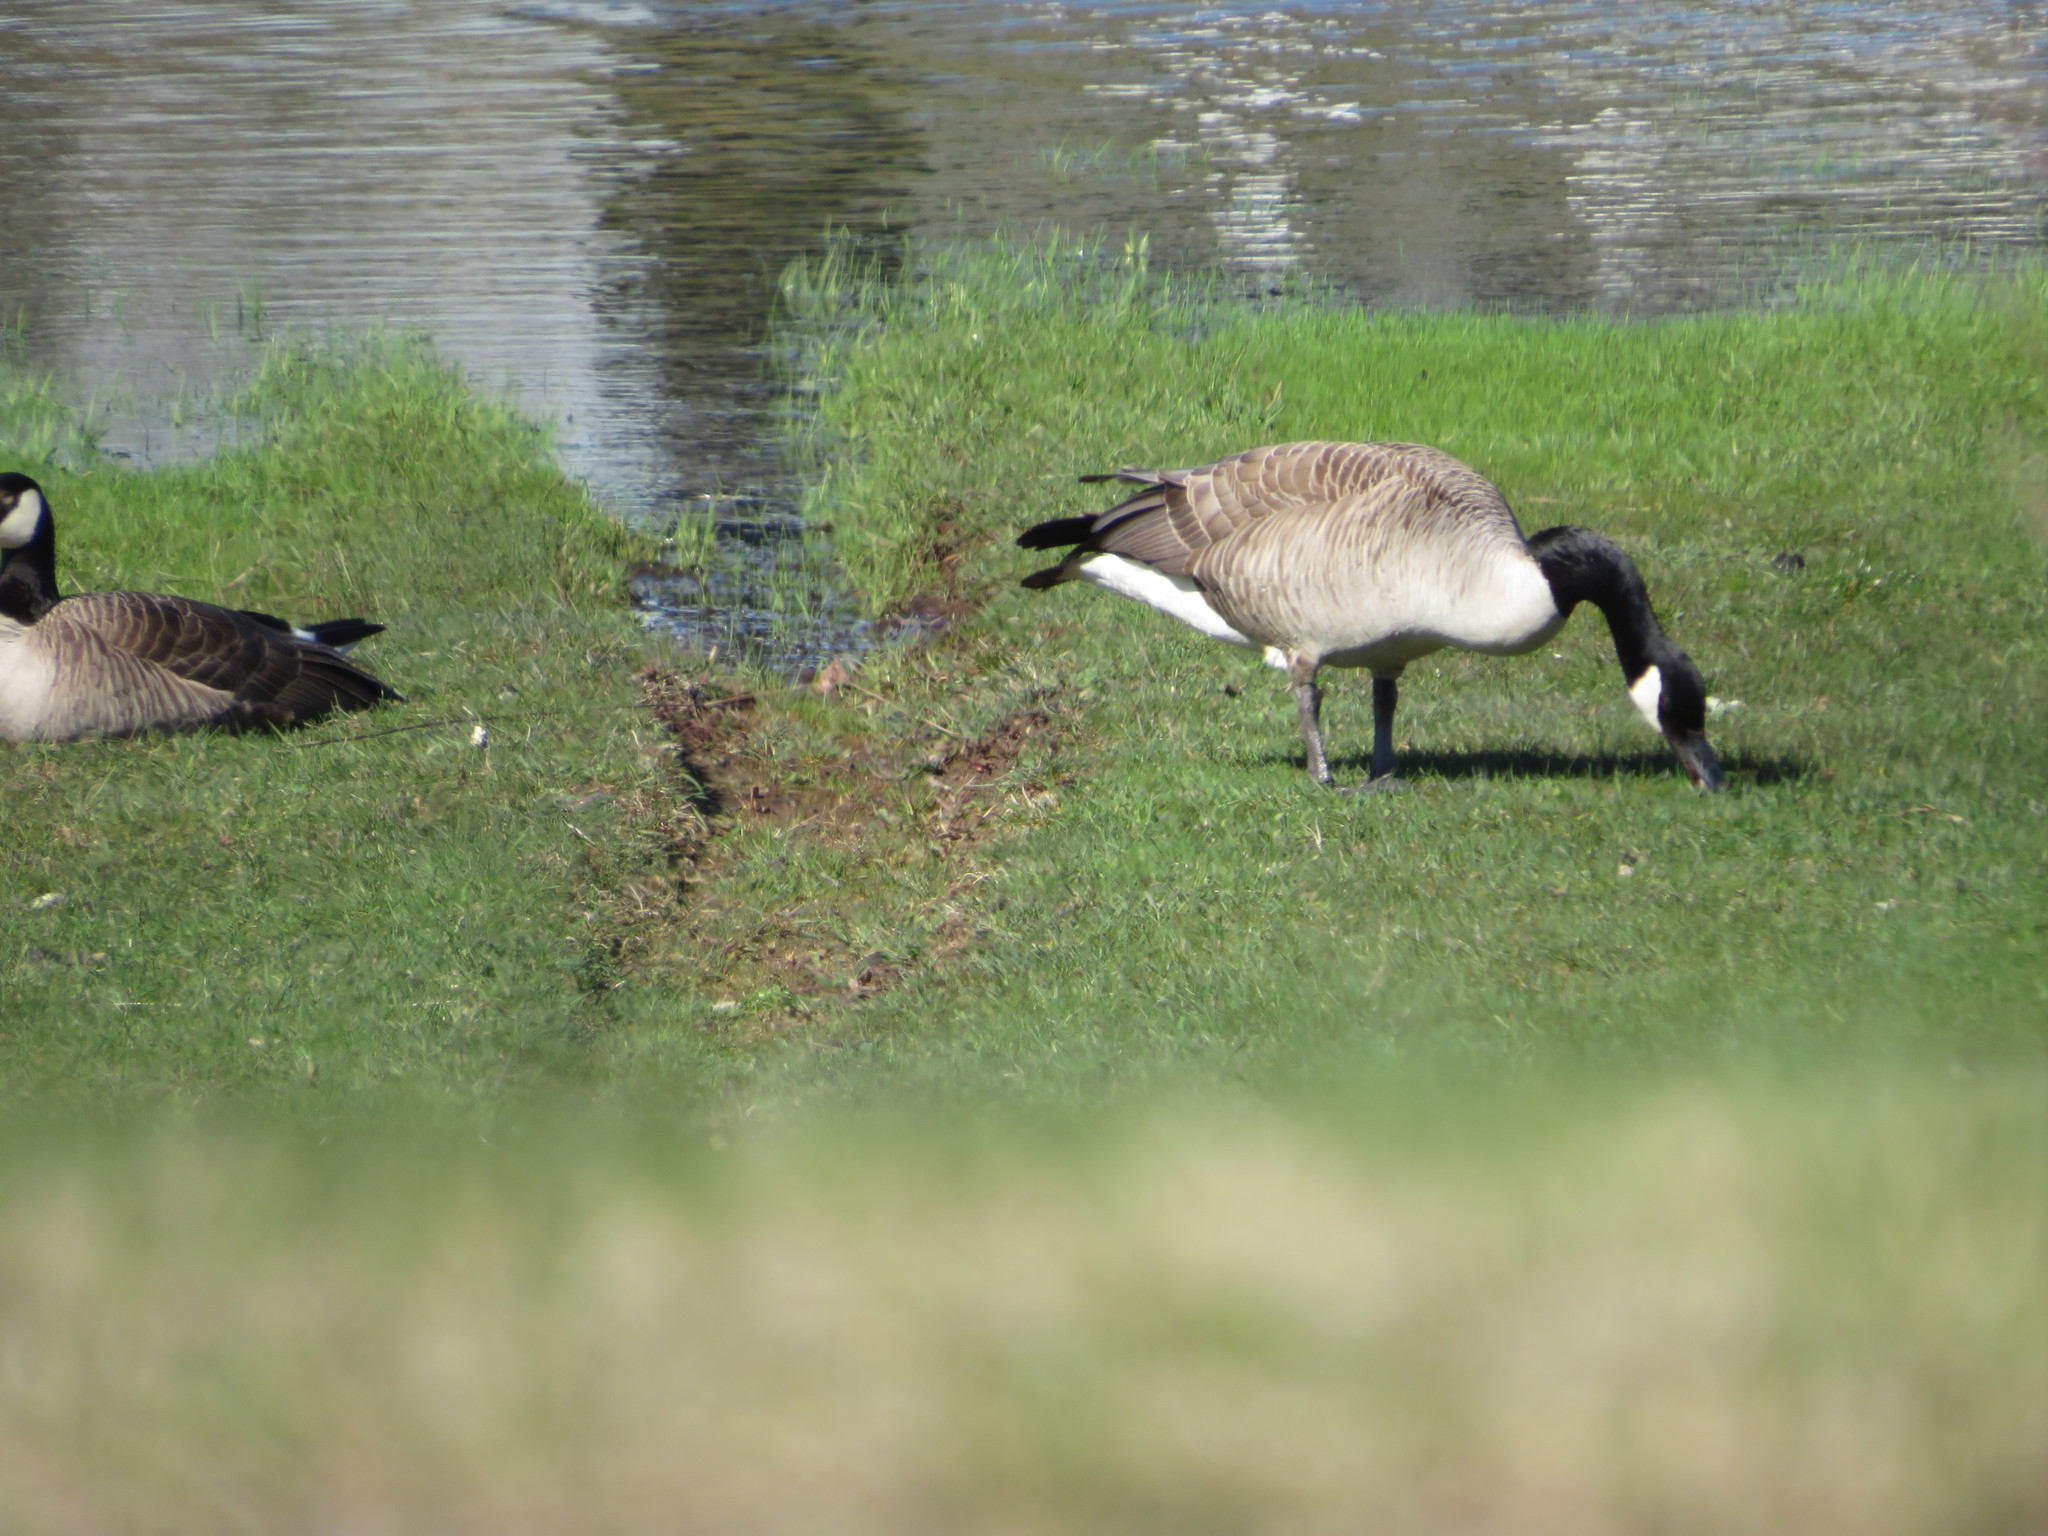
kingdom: Animalia
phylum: Chordata
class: Aves
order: Anseriformes
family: Anatidae
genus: Branta
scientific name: Branta canadensis
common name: Canada goose
